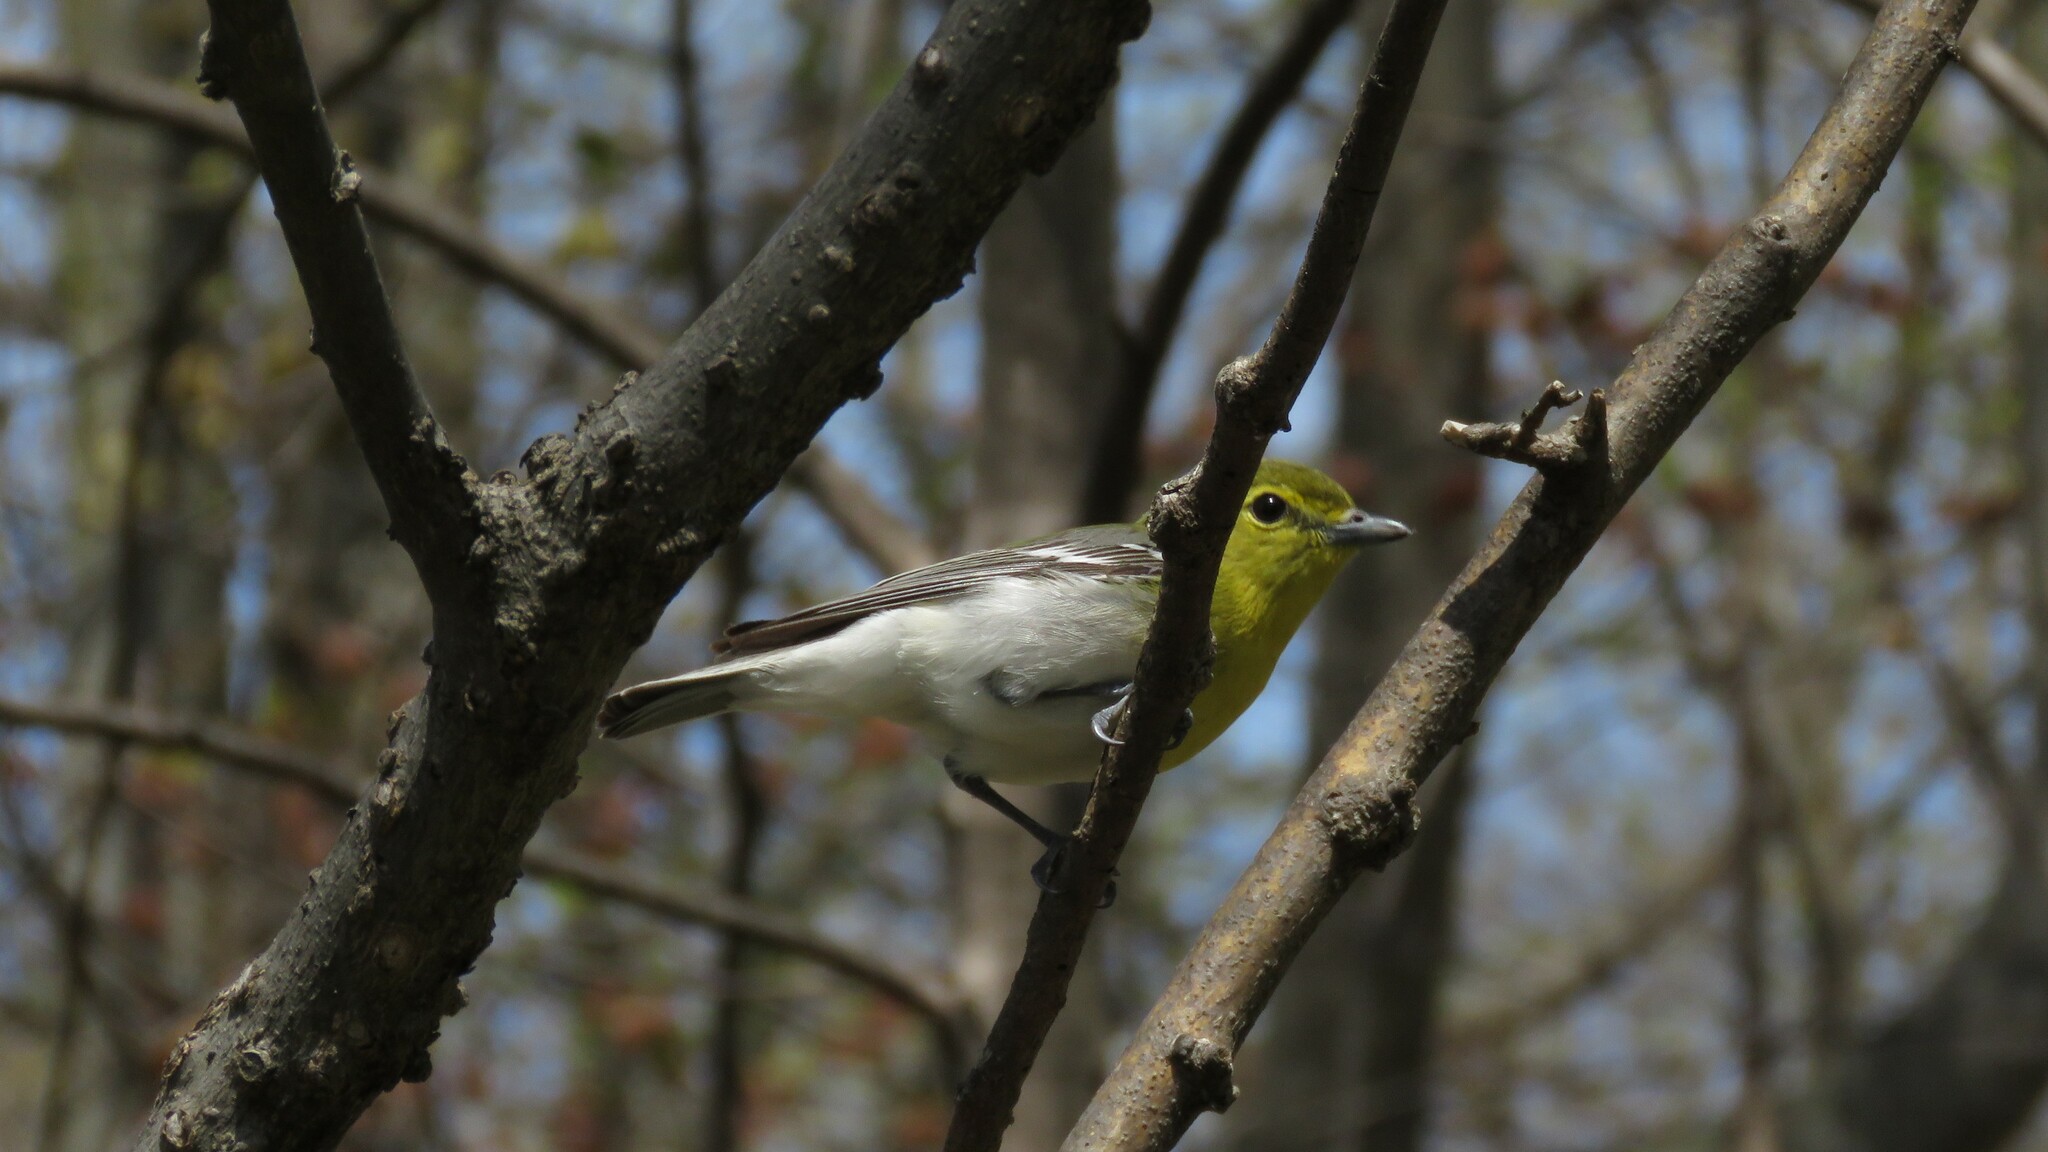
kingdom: Animalia
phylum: Chordata
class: Aves
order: Passeriformes
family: Vireonidae
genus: Vireo
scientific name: Vireo flavifrons
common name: Yellow-throated vireo
